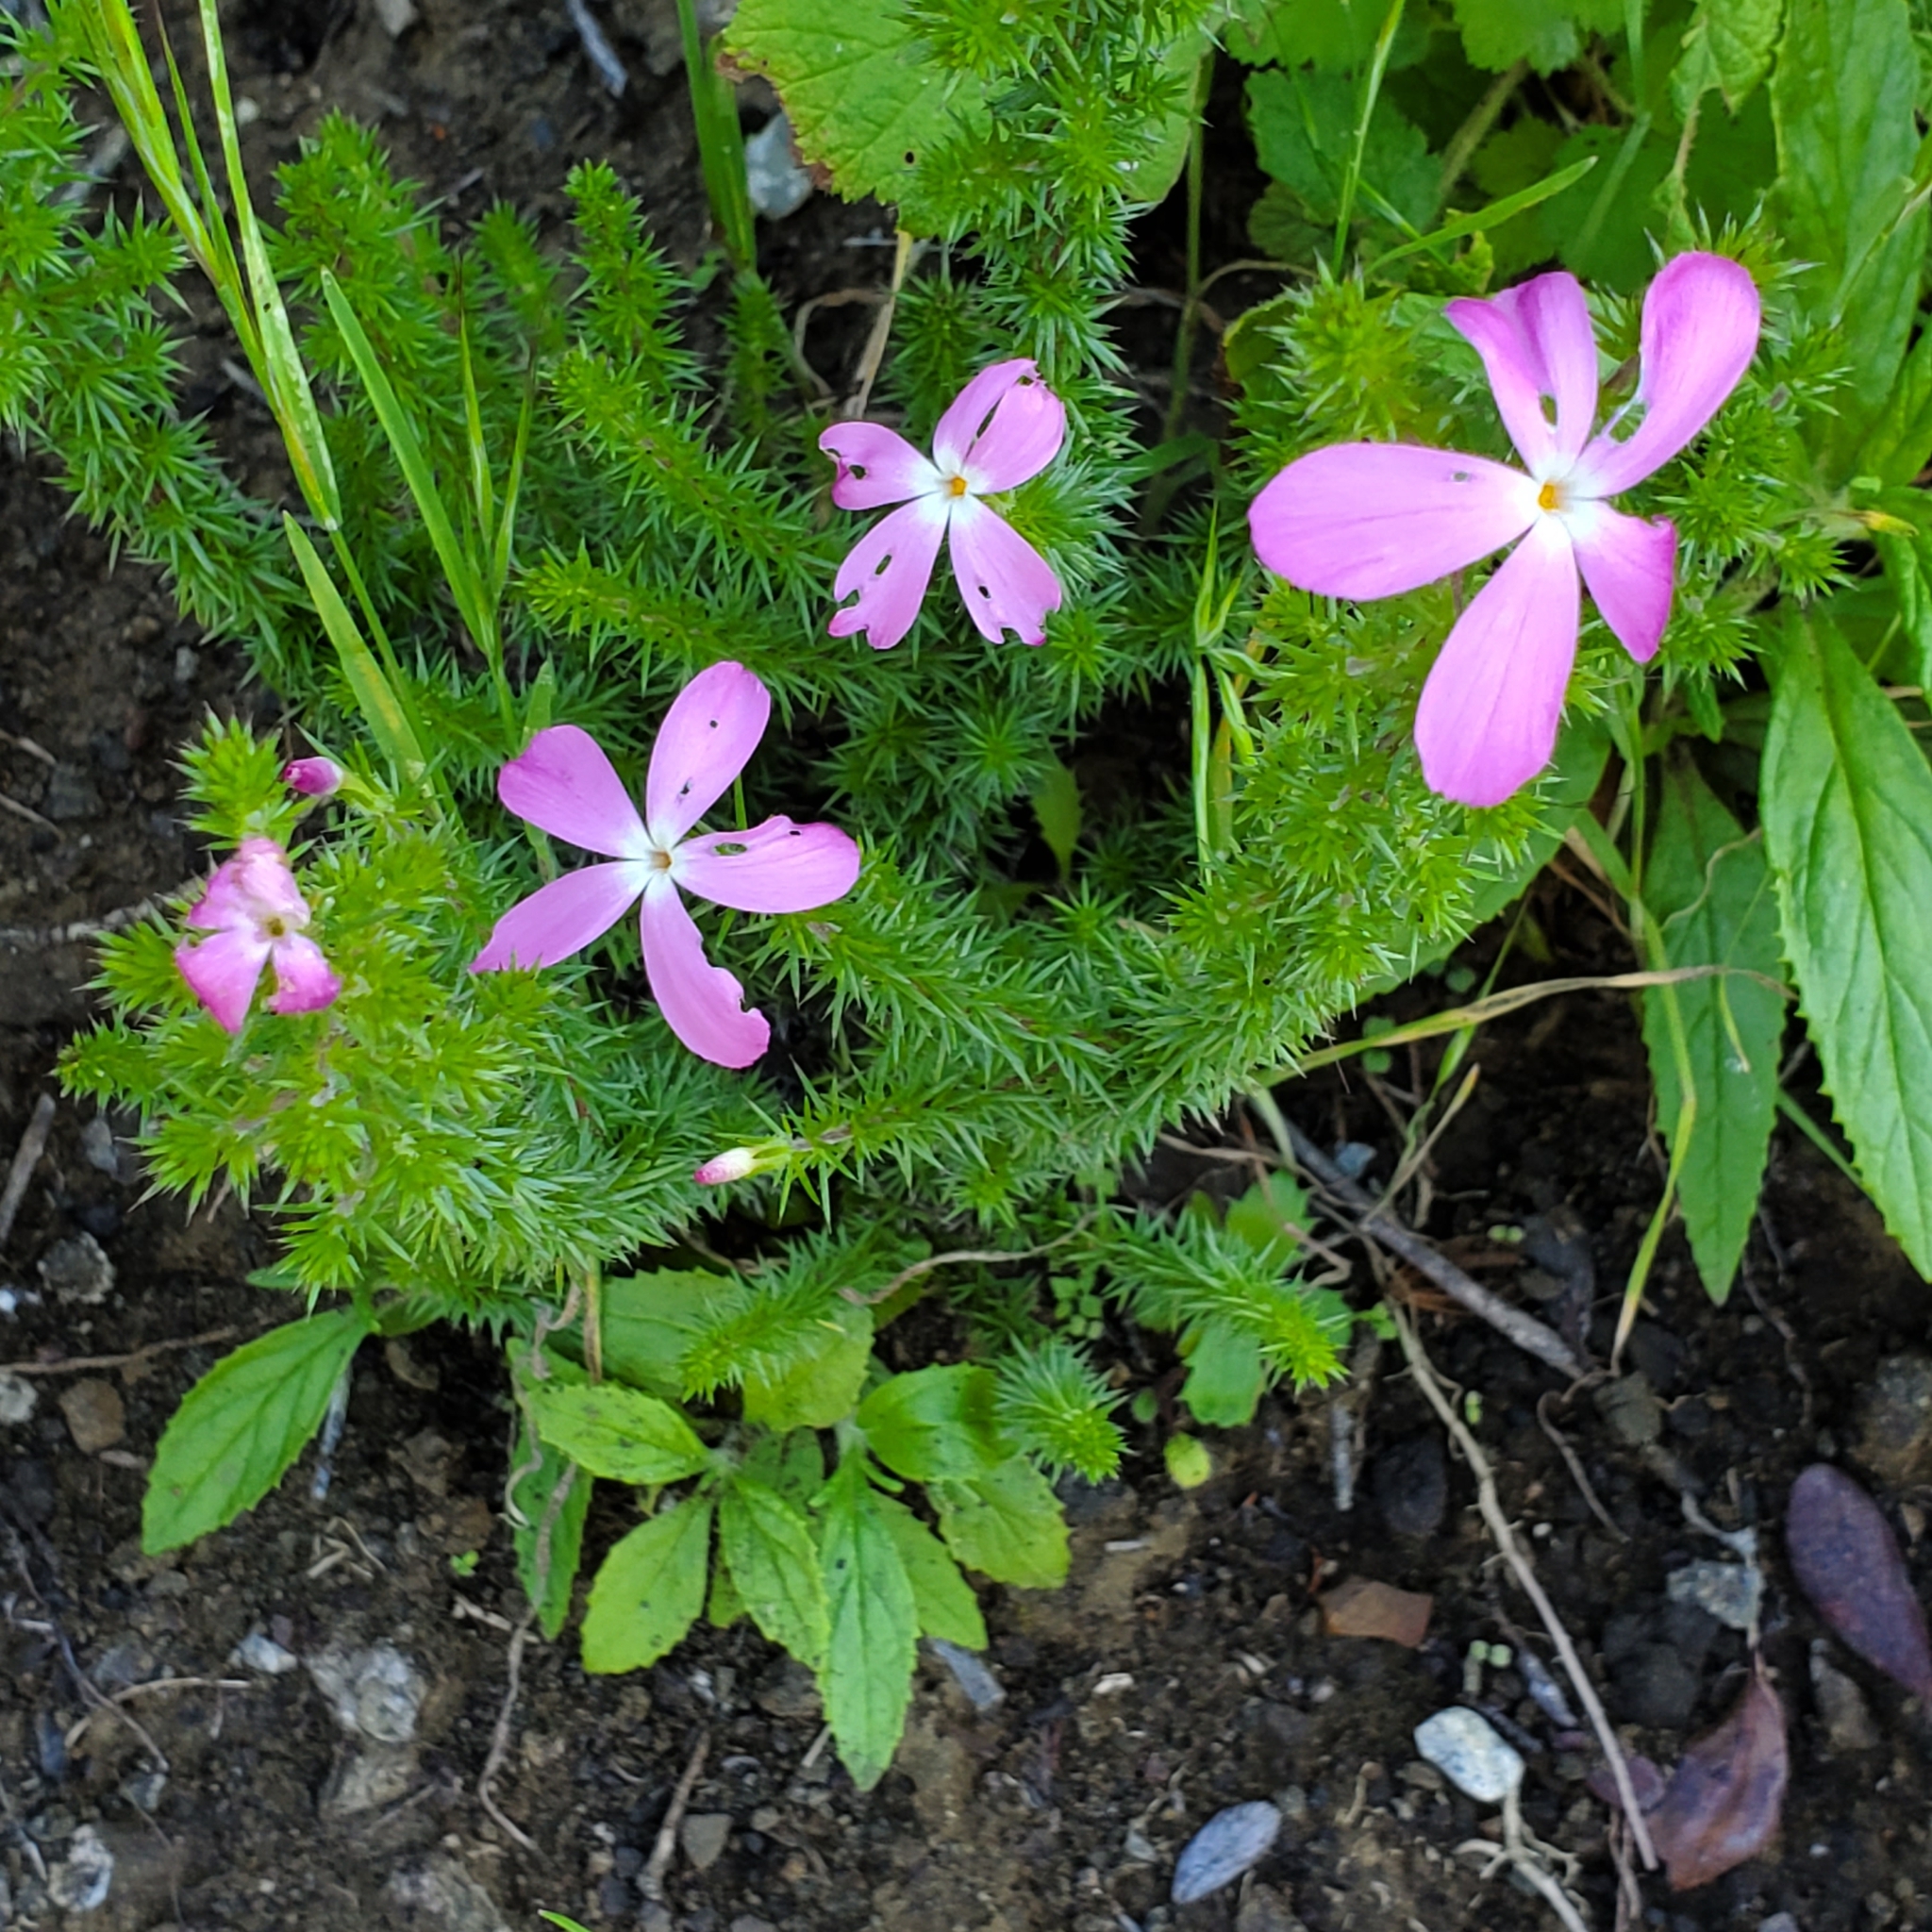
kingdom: Plantae
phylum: Tracheophyta
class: Magnoliopsida
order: Ericales
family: Polemoniaceae
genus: Linanthus
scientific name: Linanthus californicus
